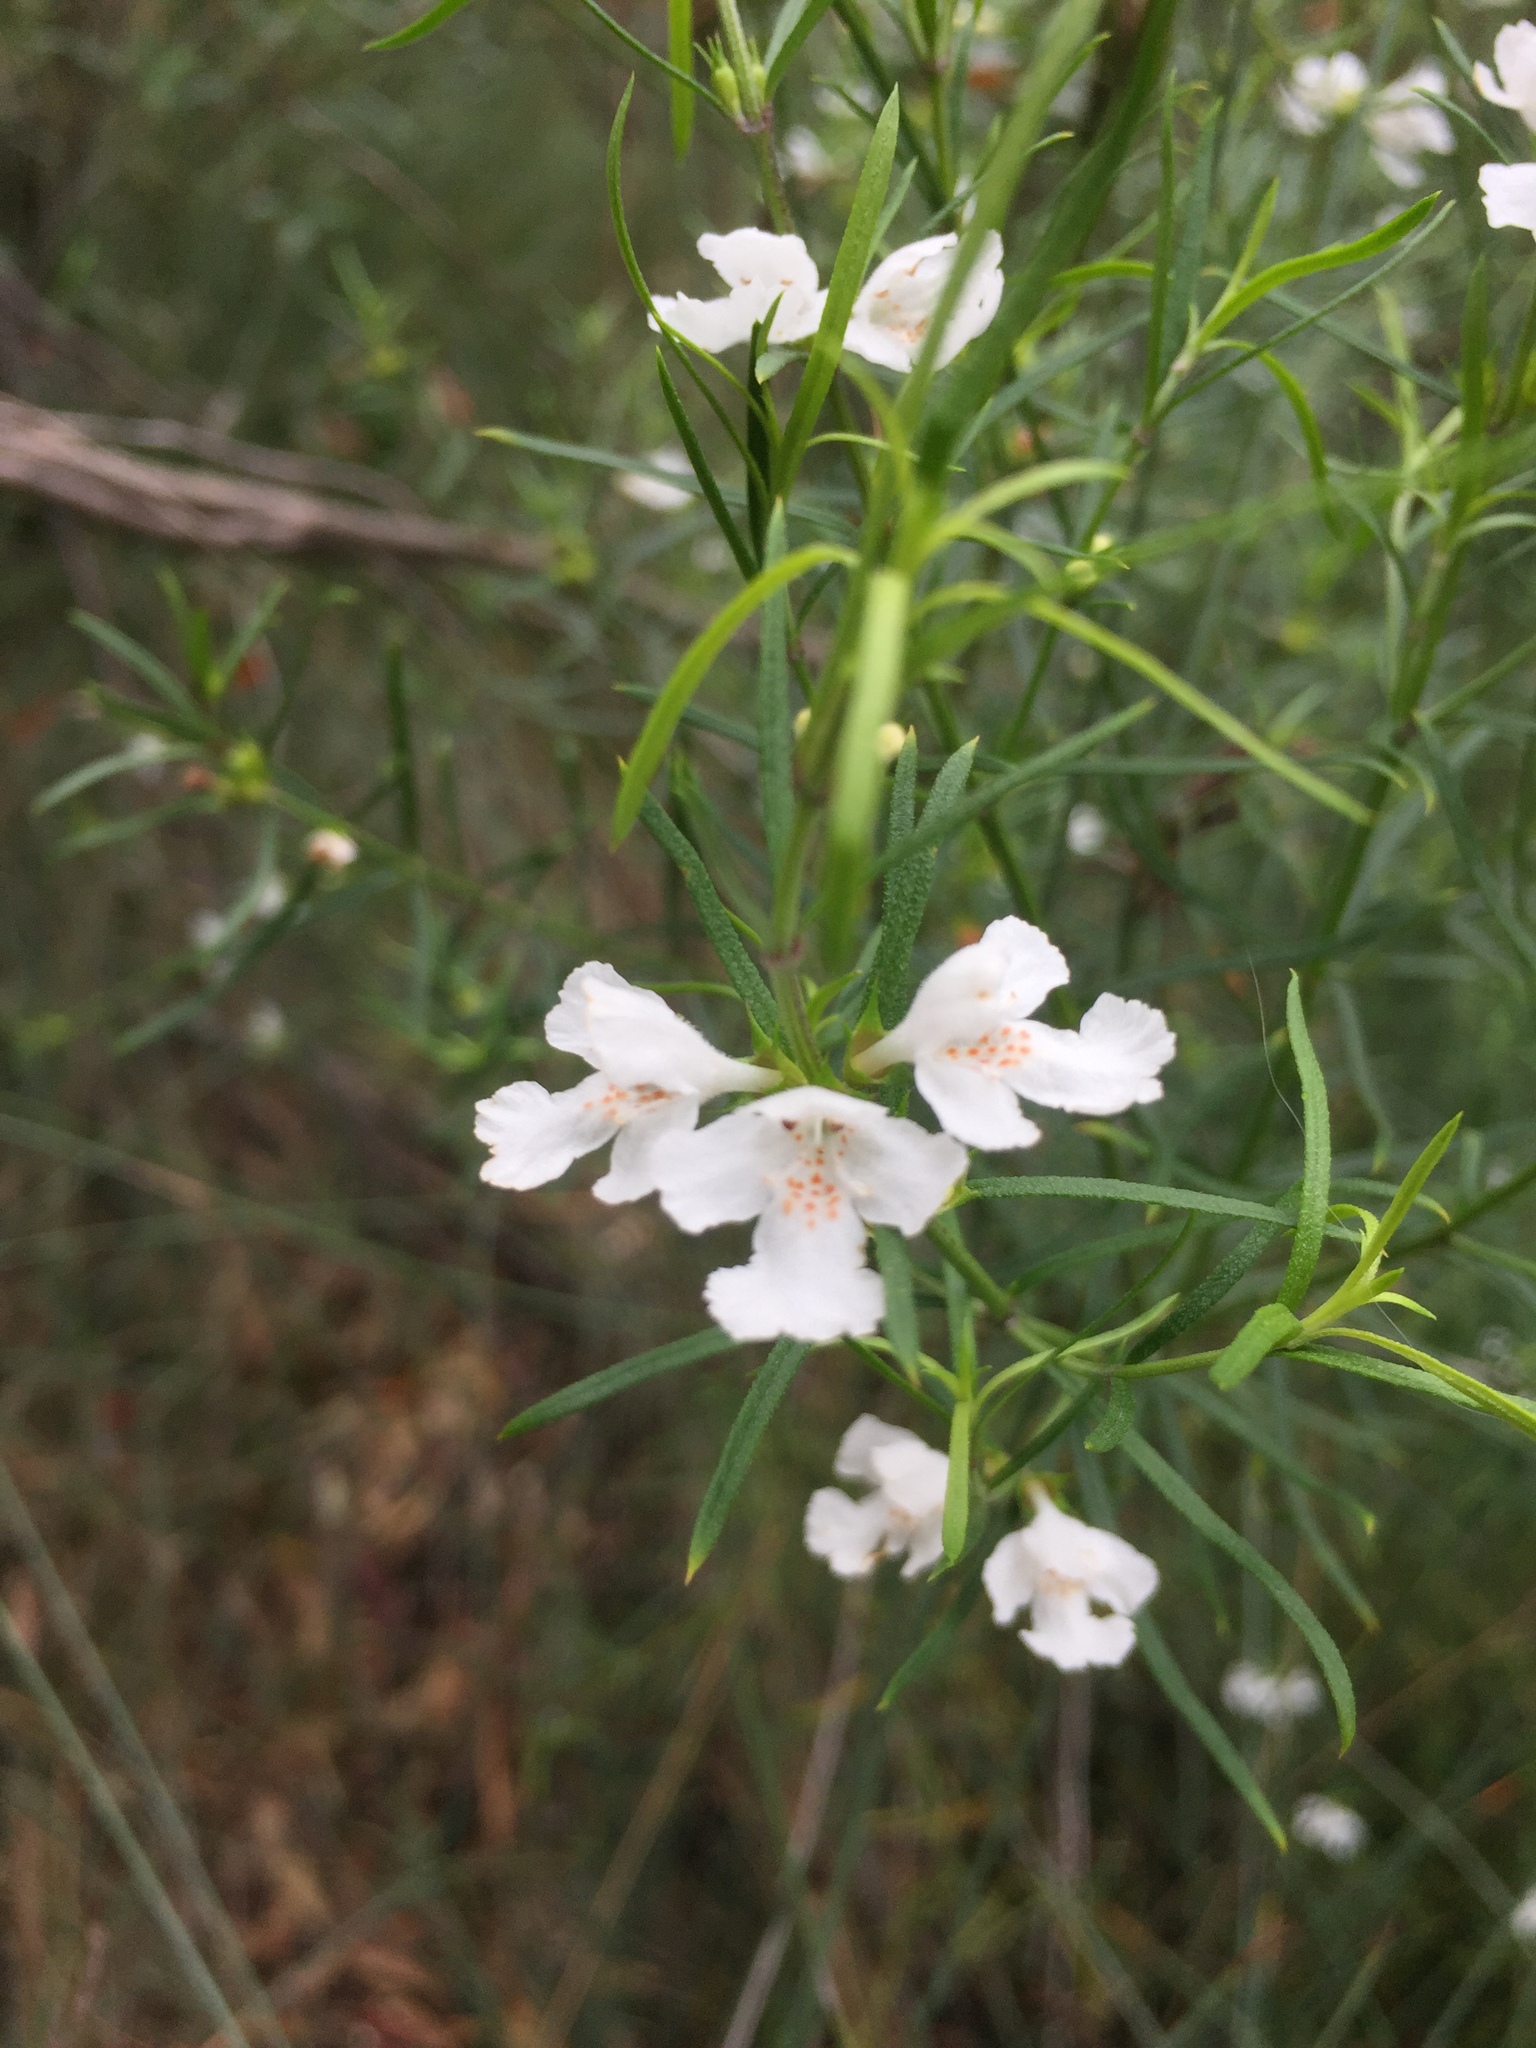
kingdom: Plantae
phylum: Tracheophyta
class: Magnoliopsida
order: Lamiales
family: Lamiaceae
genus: Westringia
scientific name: Westringia longifolia
